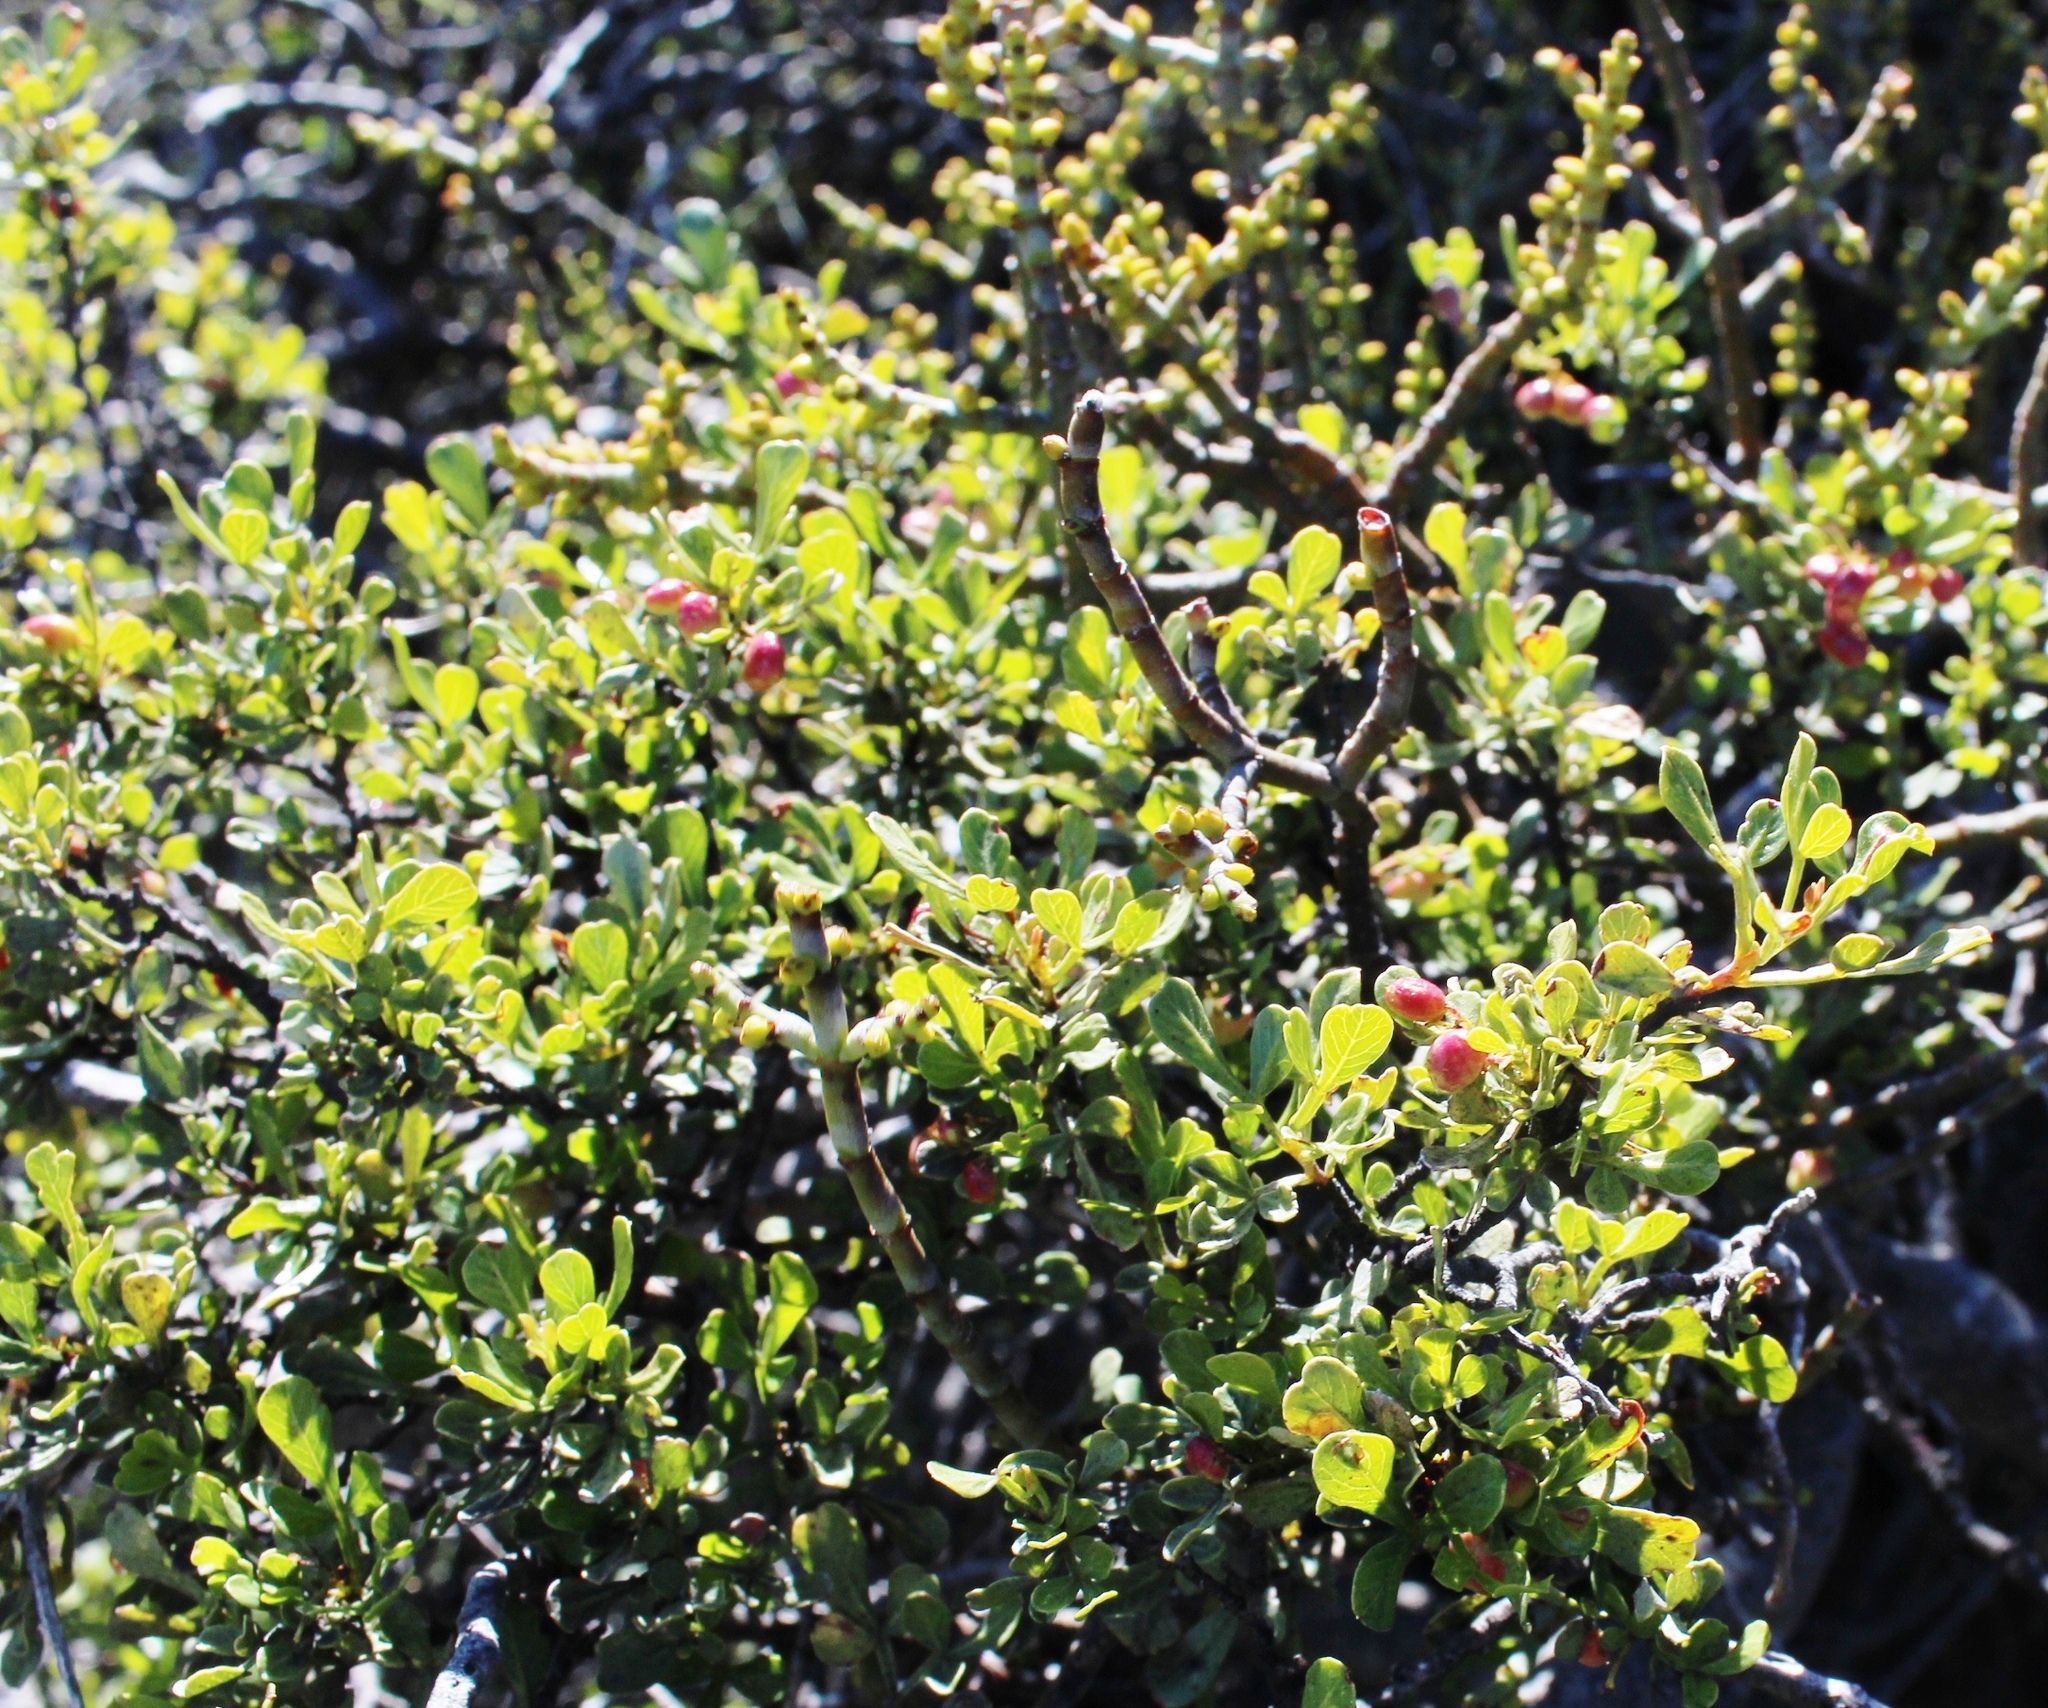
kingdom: Plantae
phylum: Tracheophyta
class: Magnoliopsida
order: Sapindales
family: Anacardiaceae
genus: Searsia
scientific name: Searsia undulata
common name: Namaqua kunibush
